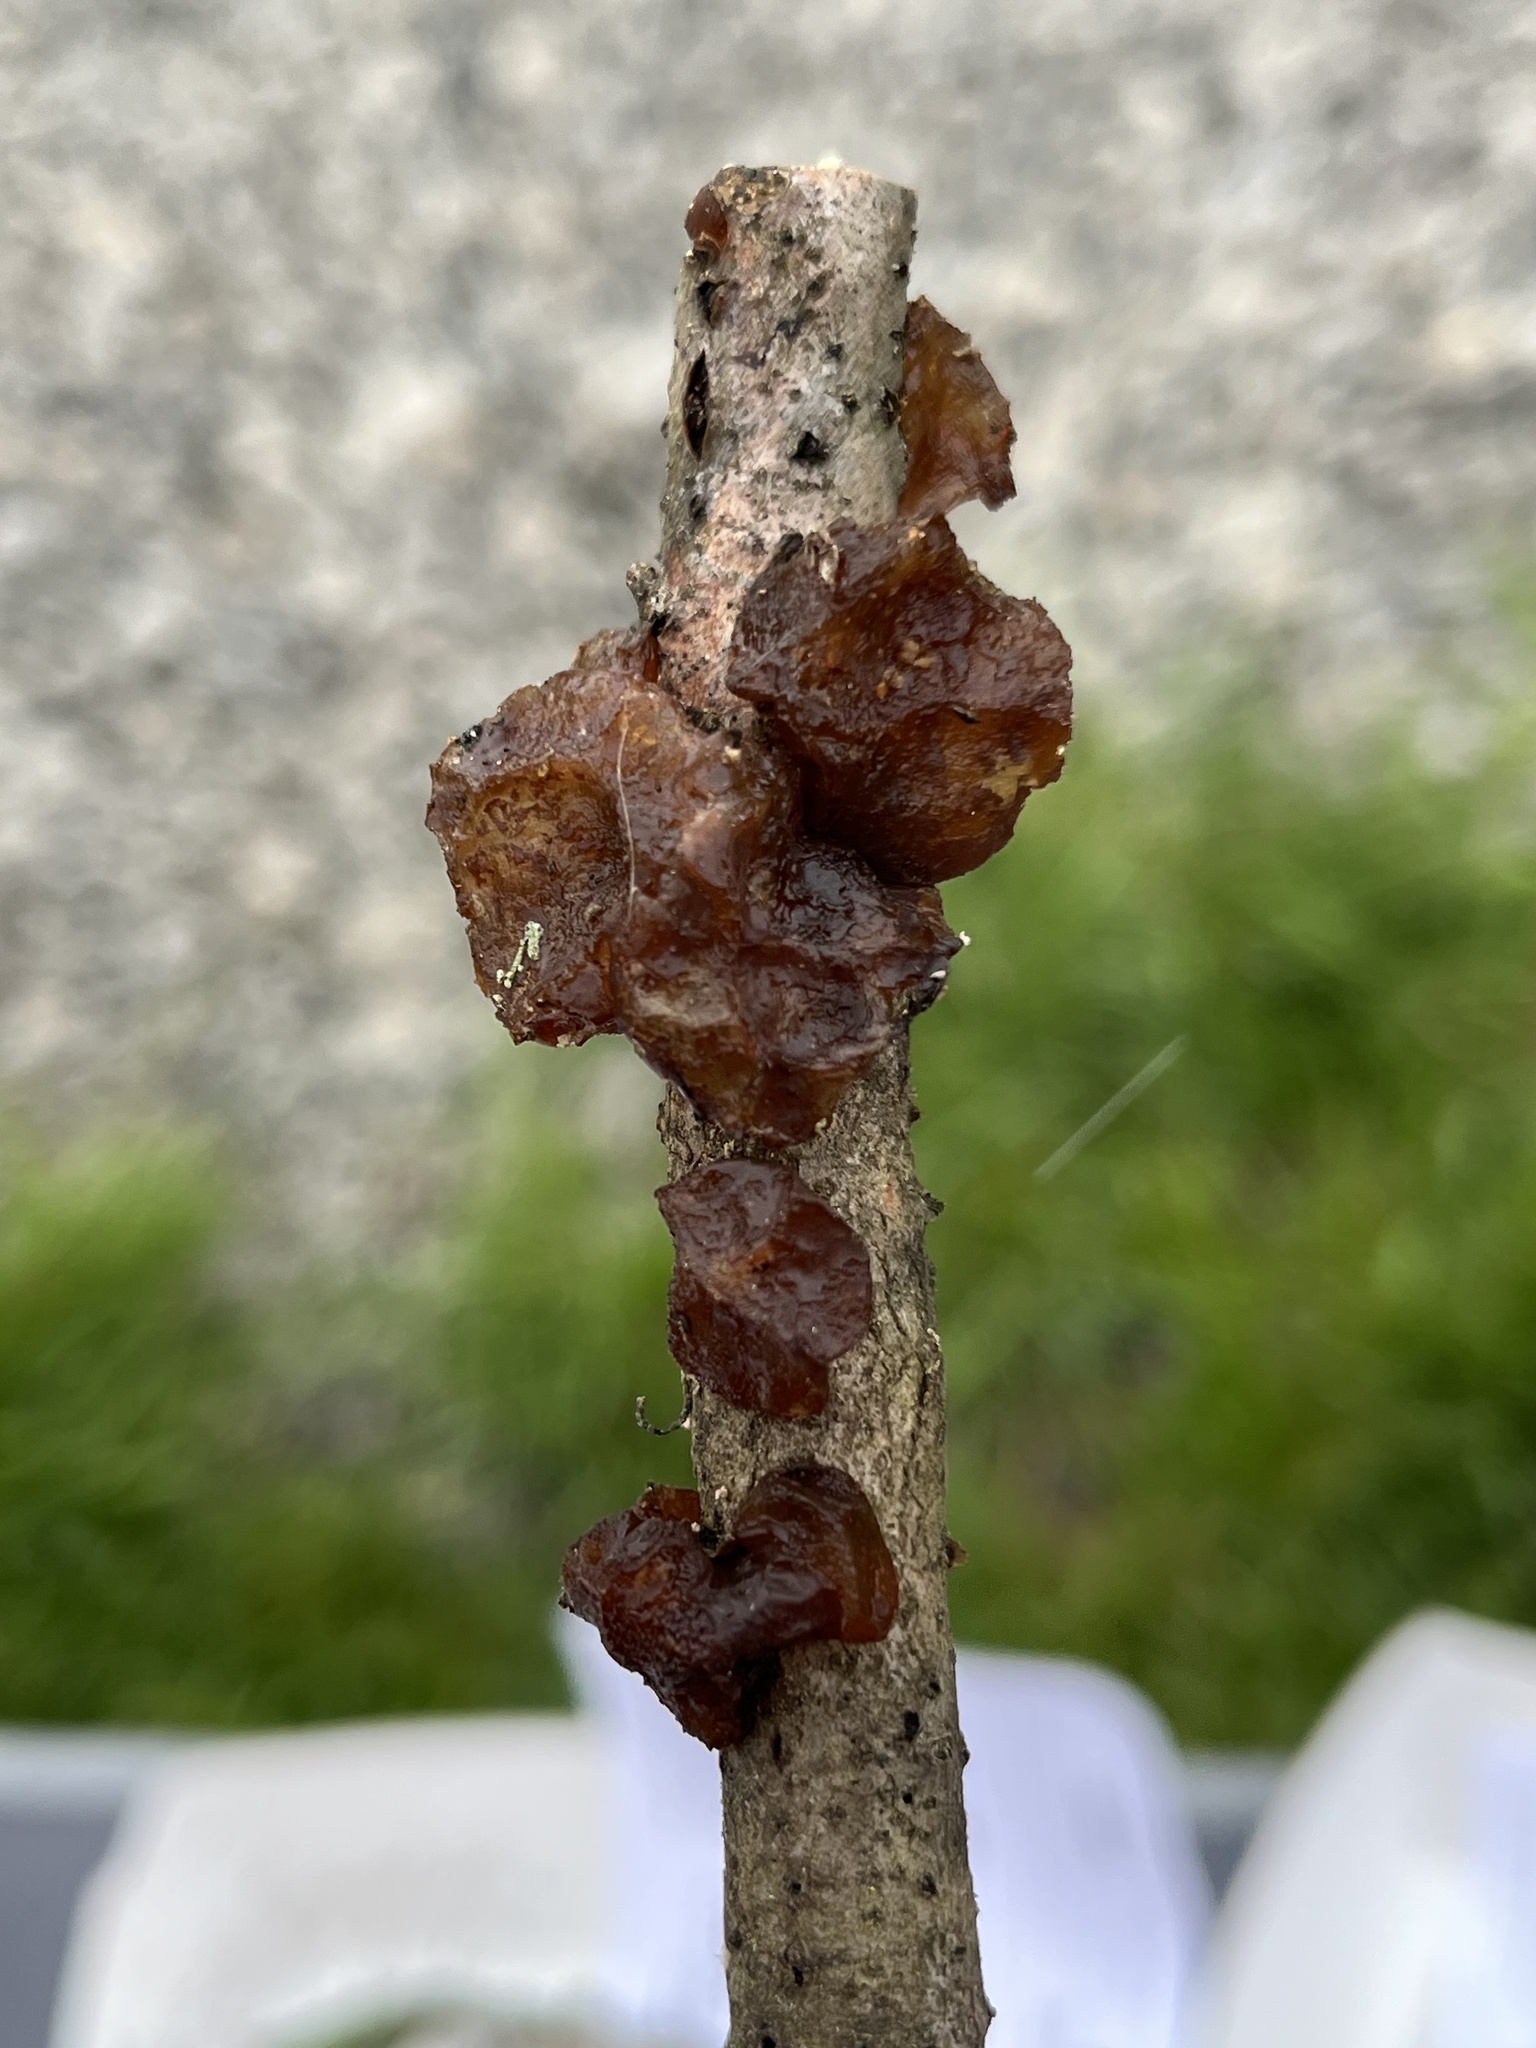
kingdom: Fungi
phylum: Basidiomycota
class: Agaricomycetes
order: Auriculariales
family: Auriculariaceae
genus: Exidia
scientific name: Exidia
